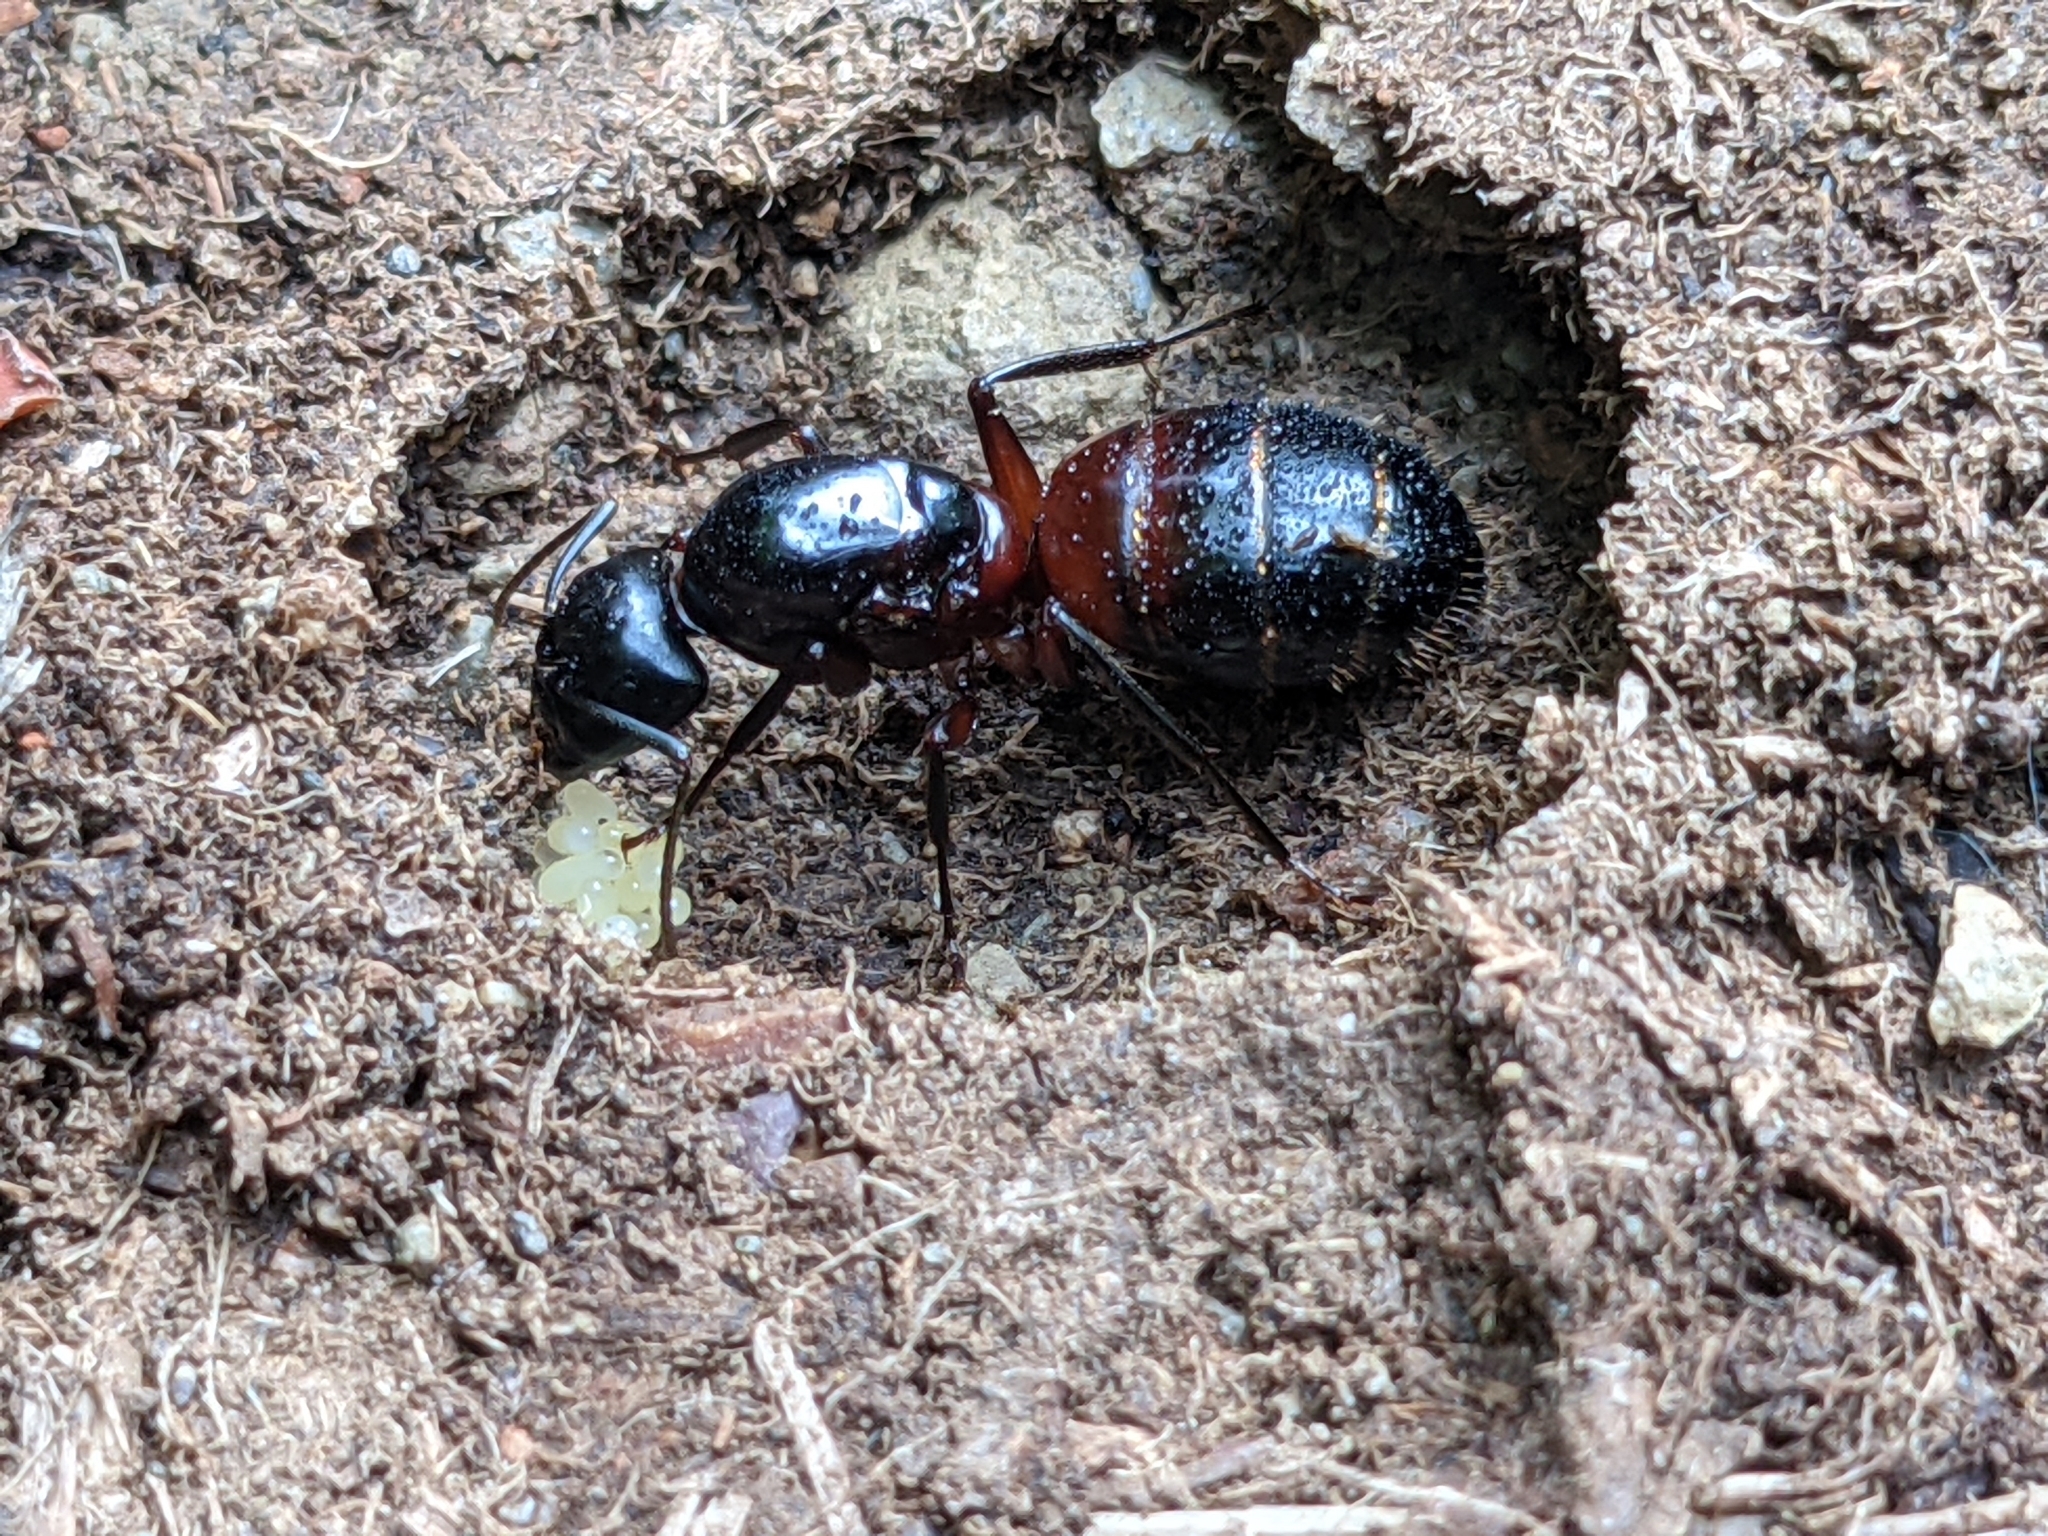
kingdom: Animalia
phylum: Arthropoda
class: Insecta
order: Hymenoptera
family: Formicidae
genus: Camponotus
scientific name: Camponotus ligniperdus
